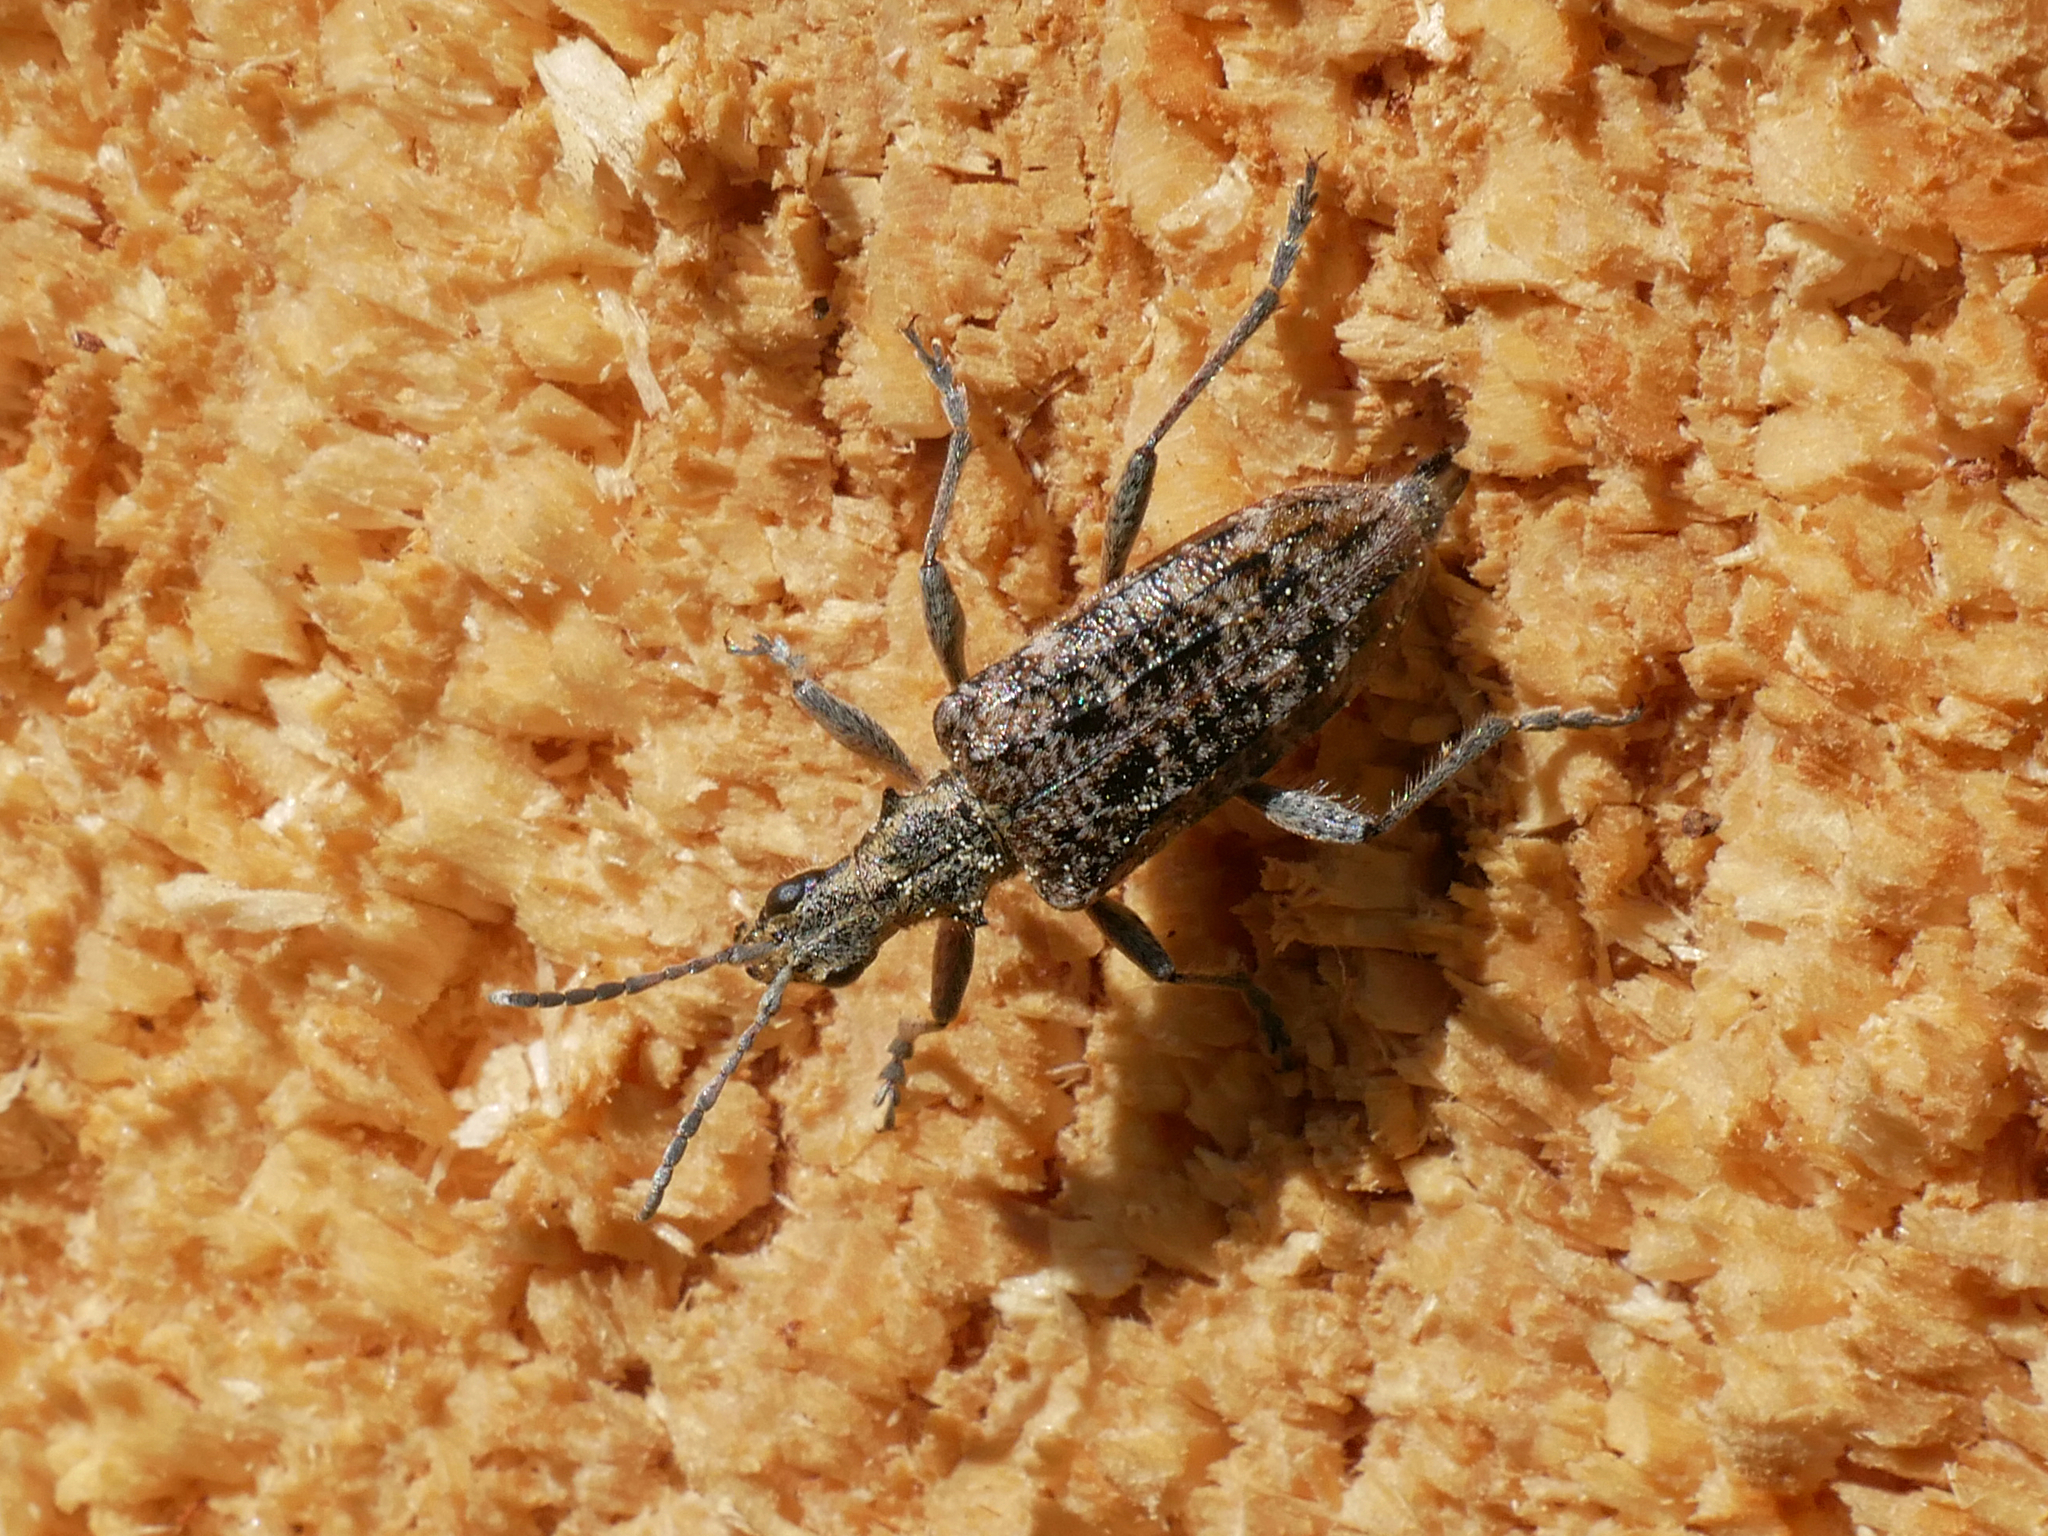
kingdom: Animalia
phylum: Arthropoda
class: Insecta
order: Coleoptera
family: Cerambycidae
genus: Rhagium
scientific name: Rhagium inquisitor
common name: Ribbed pine borer
